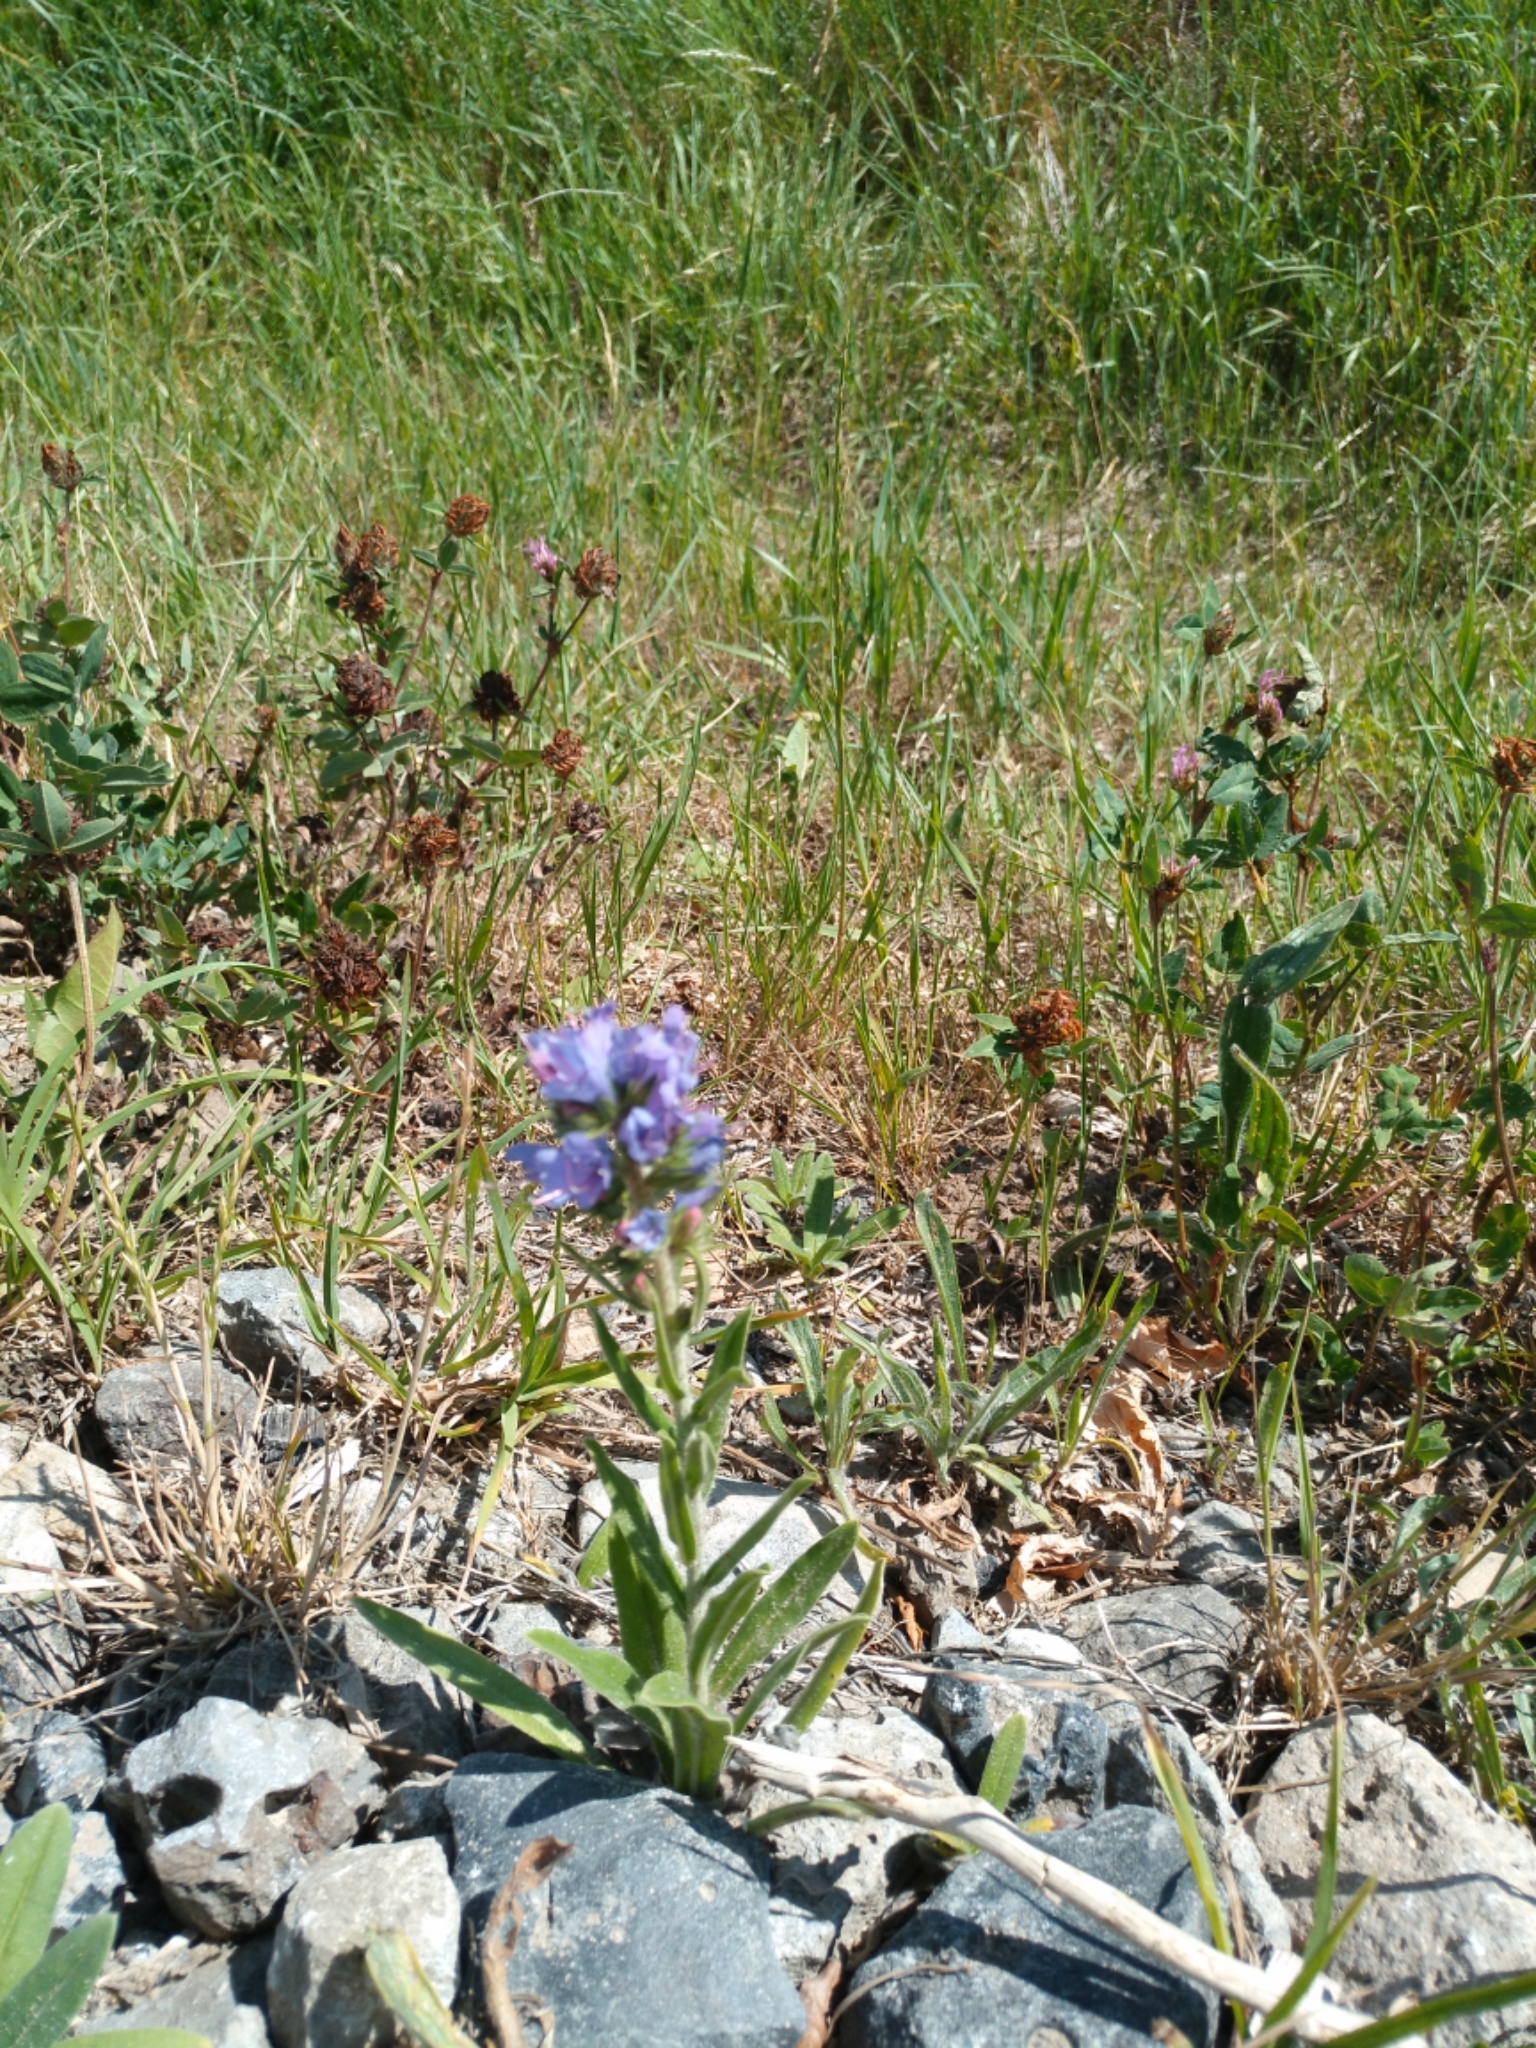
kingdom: Plantae
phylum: Tracheophyta
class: Magnoliopsida
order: Boraginales
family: Boraginaceae
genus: Echium
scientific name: Echium vulgare
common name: Common viper's bugloss
